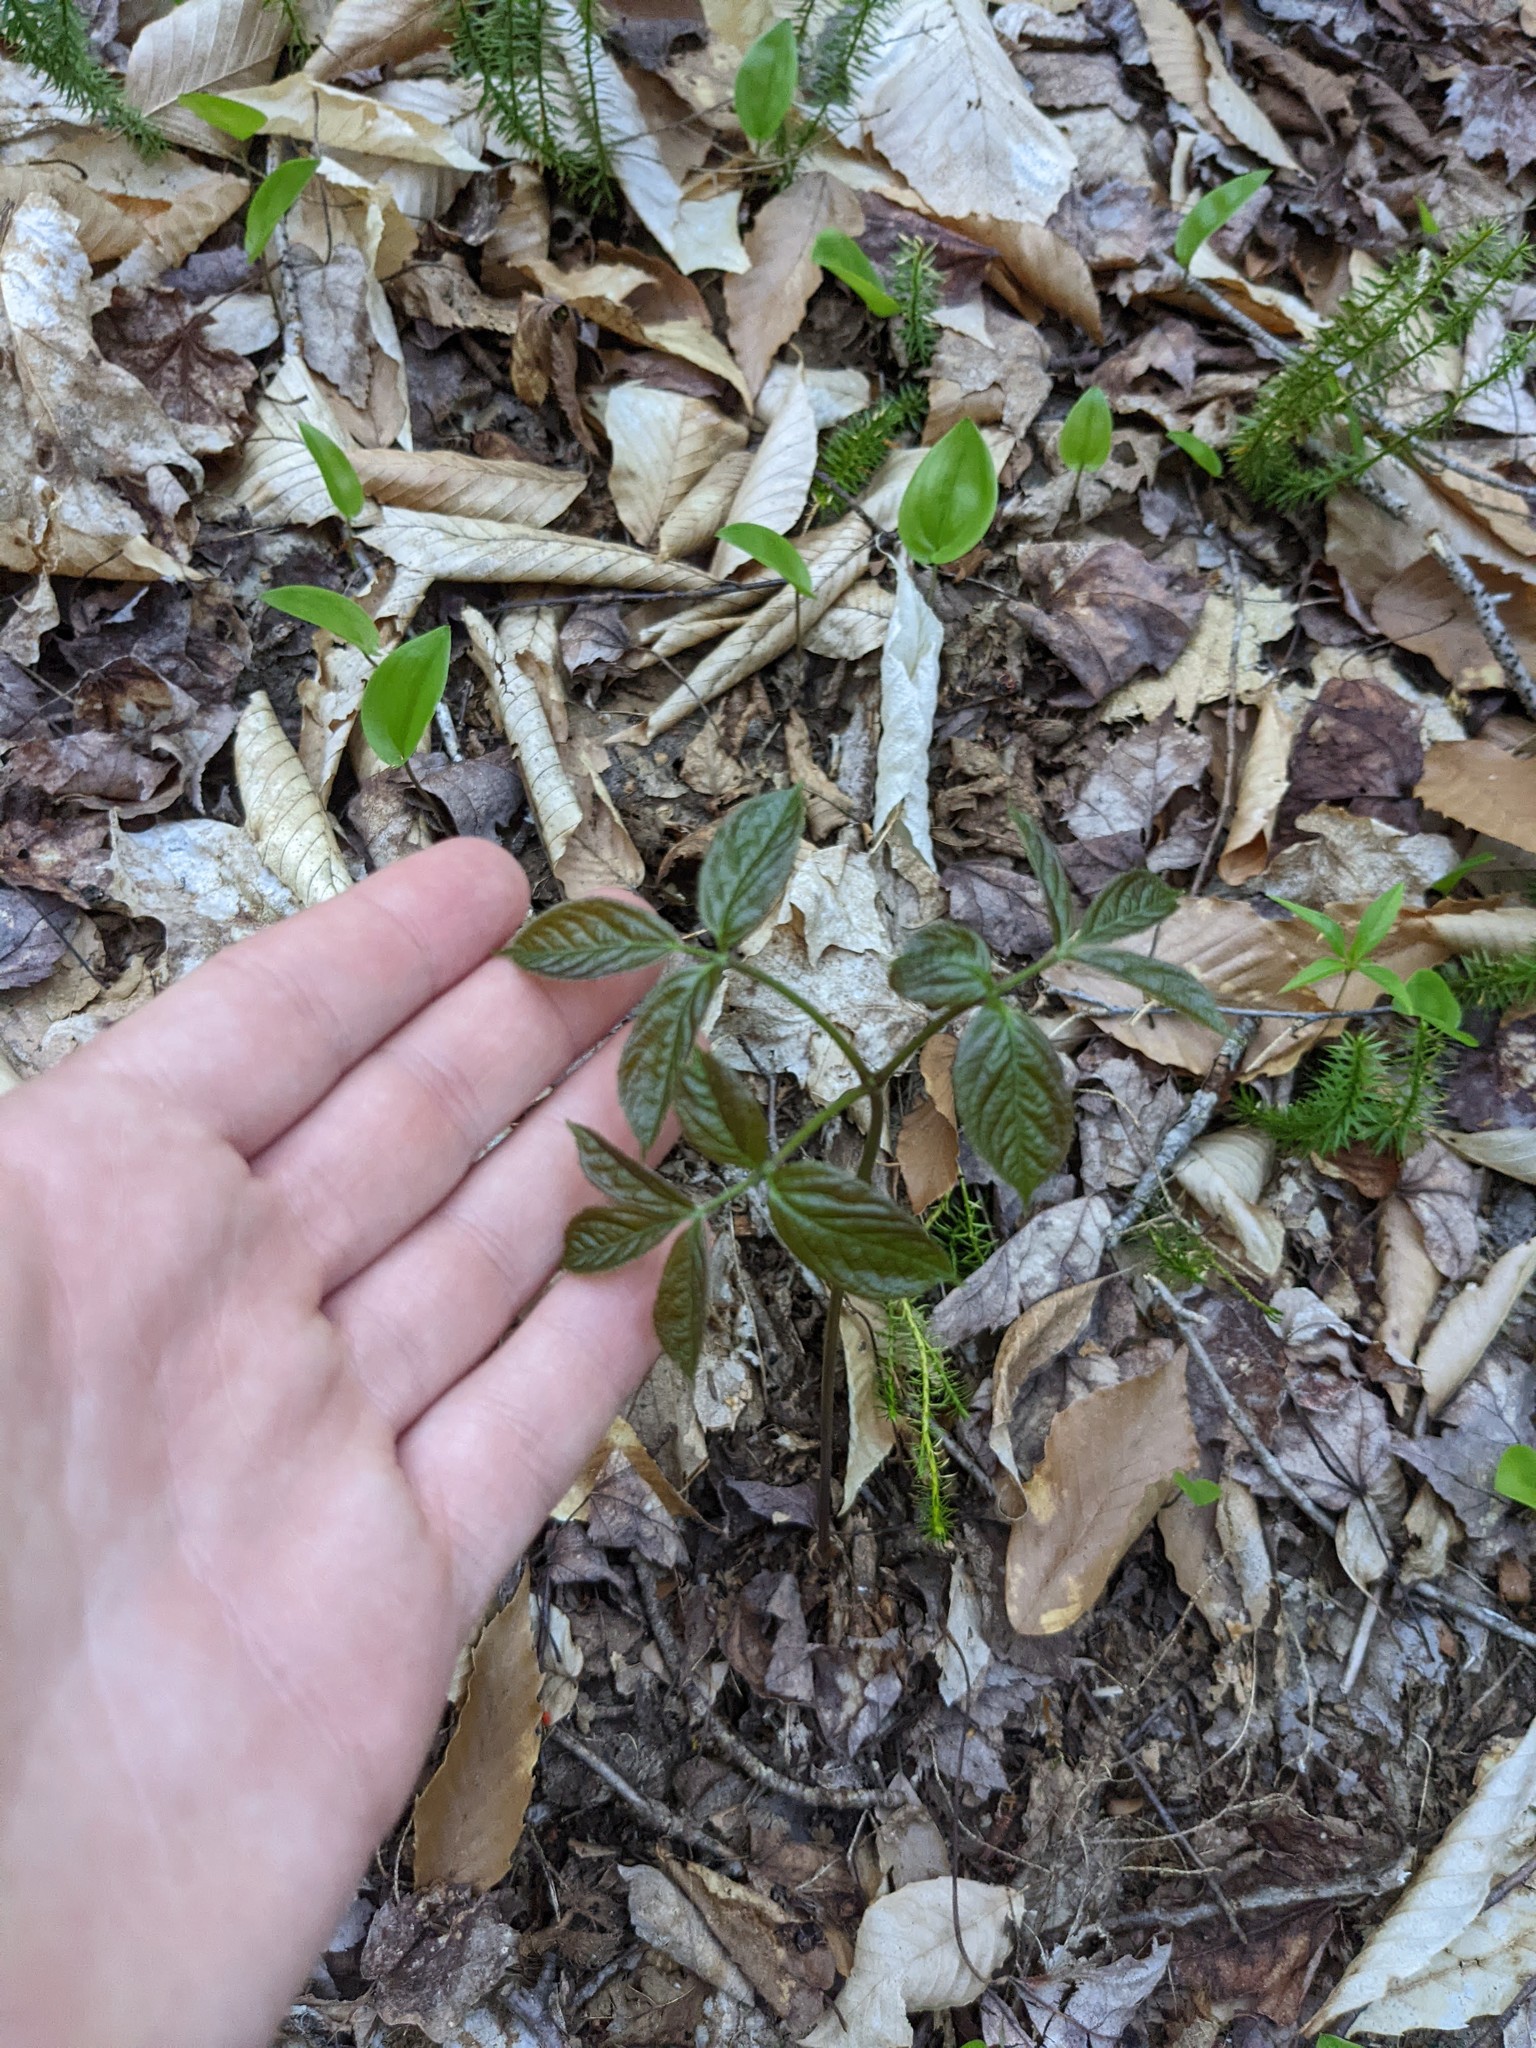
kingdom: Plantae
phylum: Tracheophyta
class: Magnoliopsida
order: Apiales
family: Araliaceae
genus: Aralia
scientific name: Aralia nudicaulis
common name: Wild sarsaparilla
